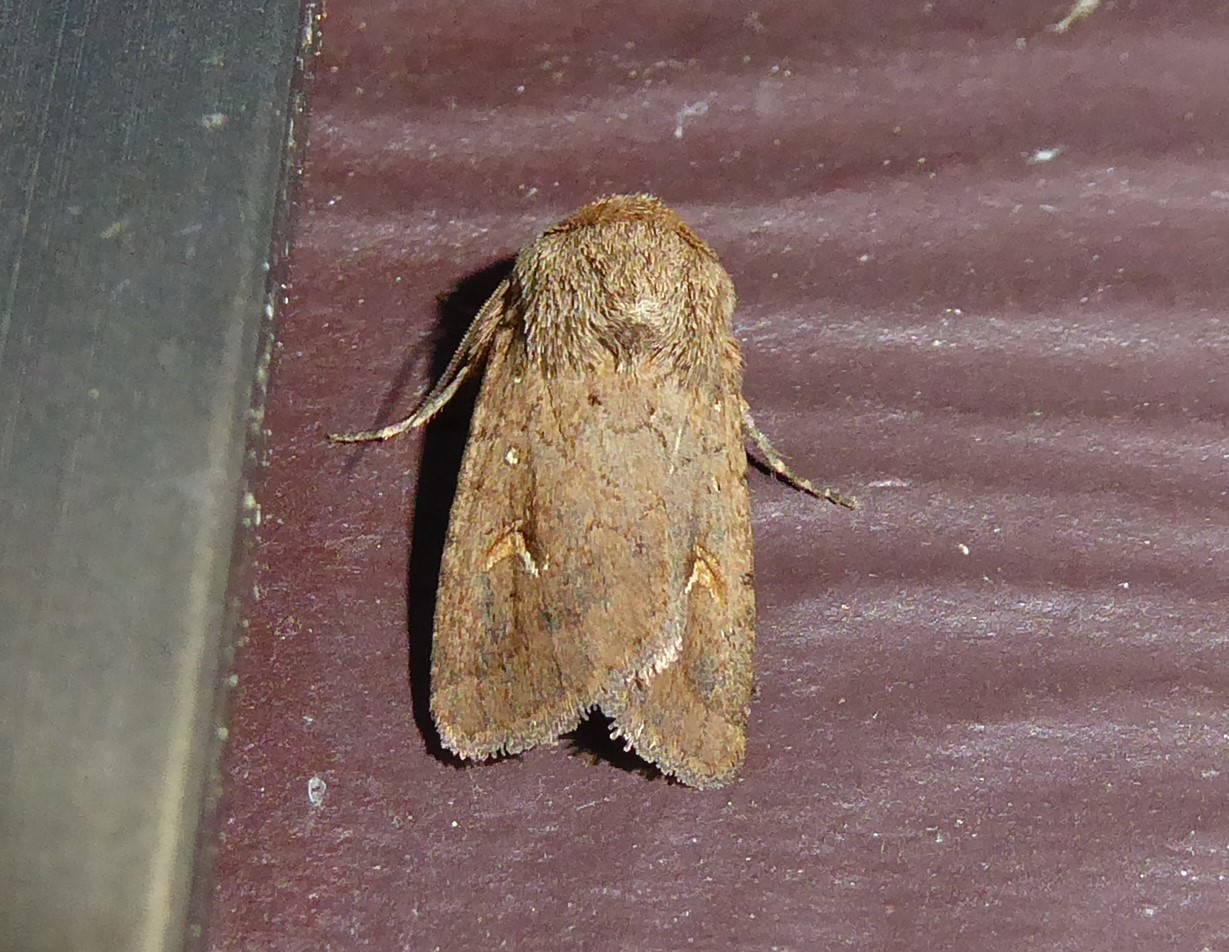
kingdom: Animalia
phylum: Arthropoda
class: Insecta
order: Lepidoptera
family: Noctuidae
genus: Proteuxoa
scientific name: Proteuxoa tetronycha
